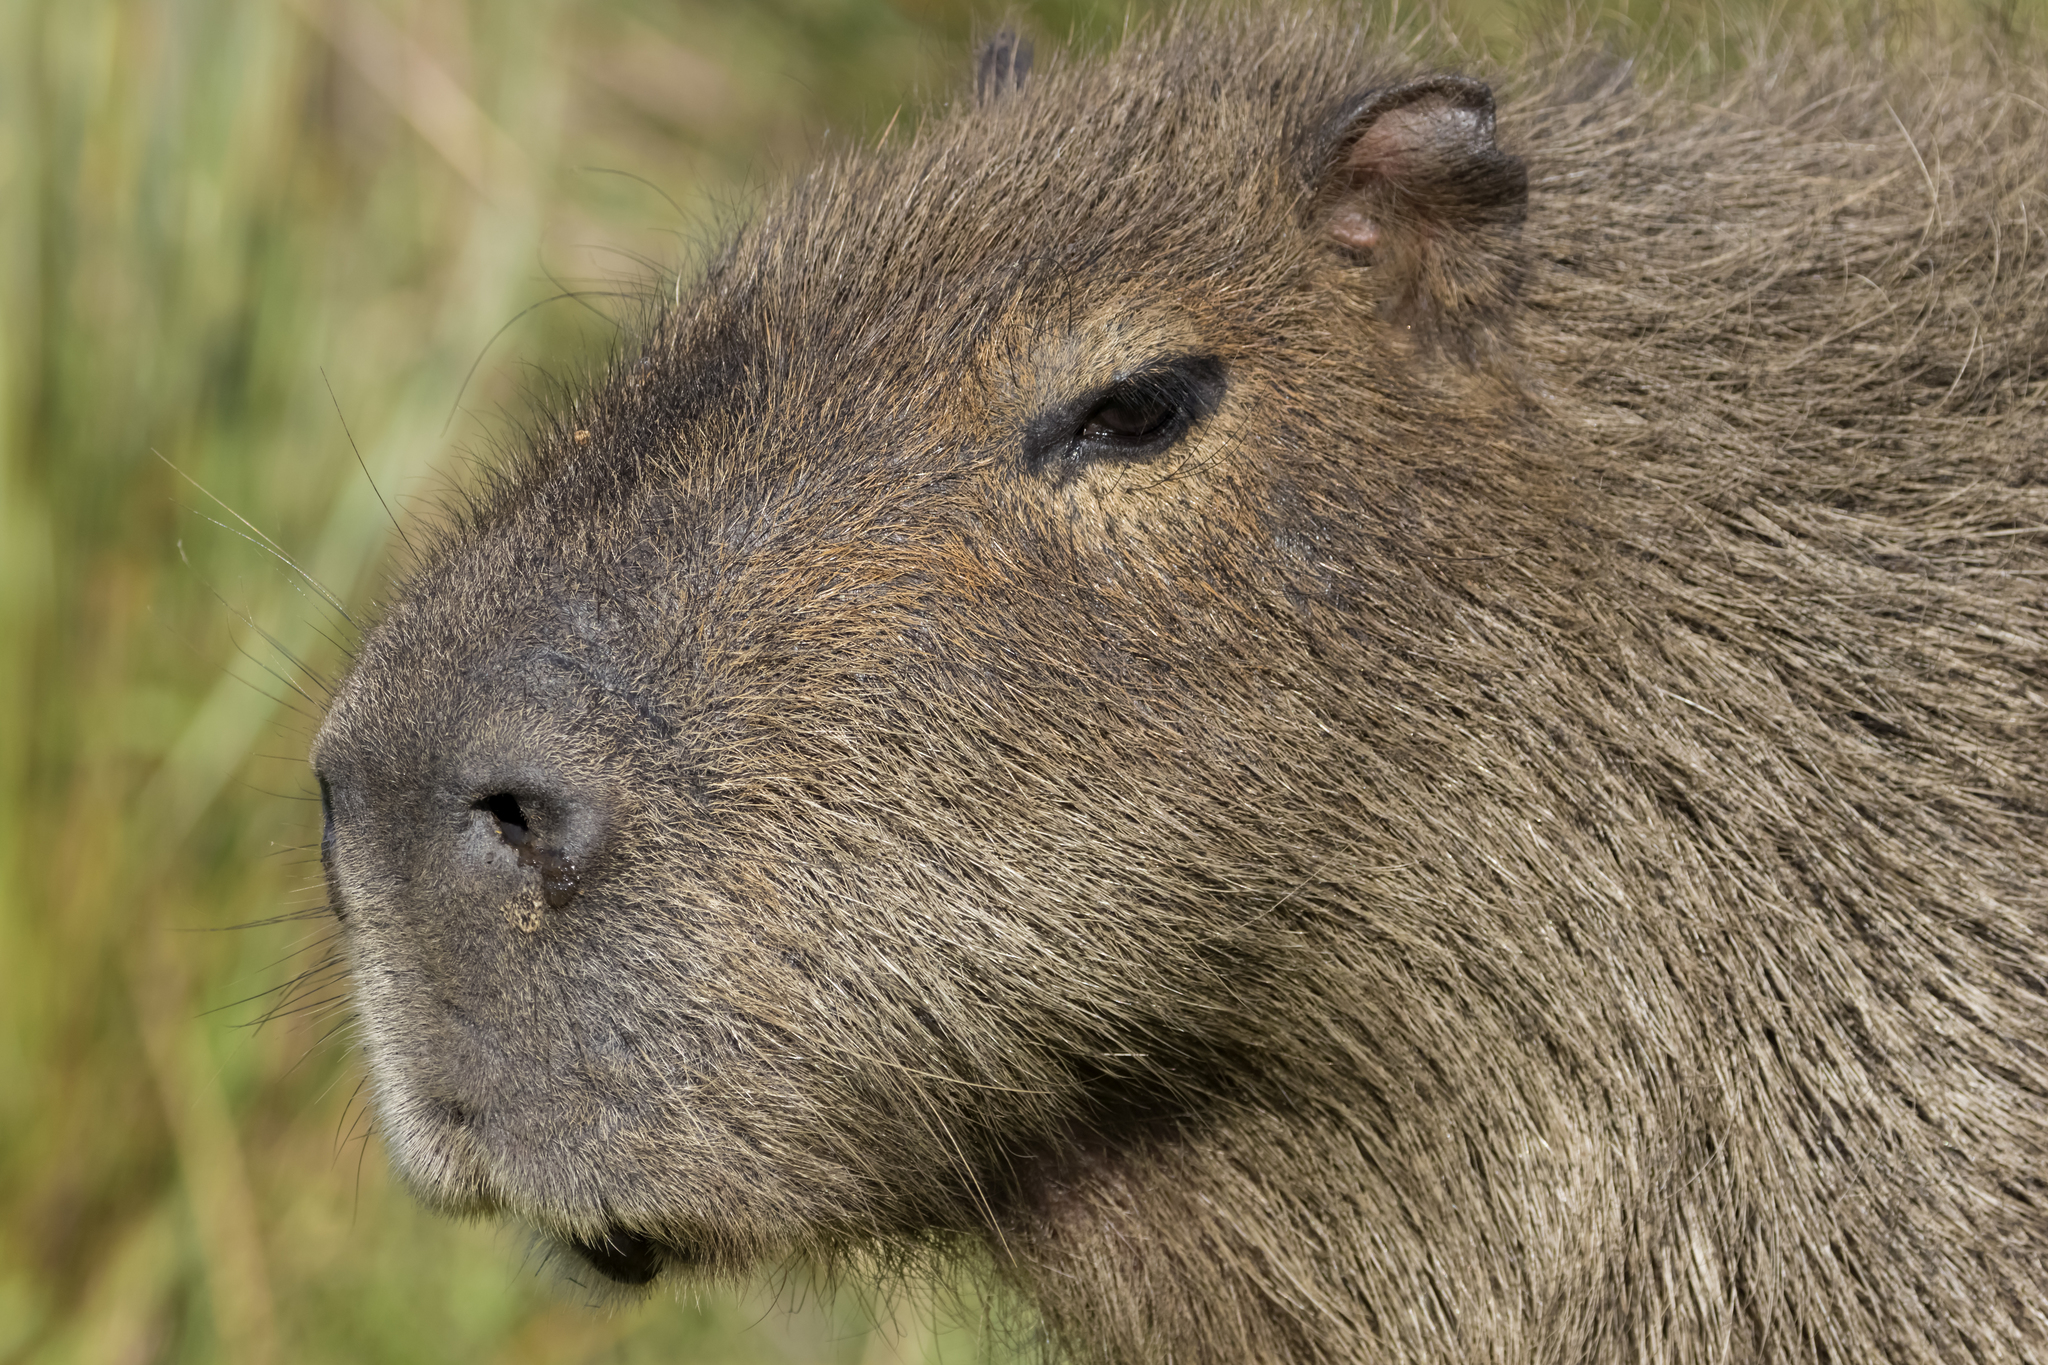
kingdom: Animalia
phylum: Chordata
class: Mammalia
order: Rodentia
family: Caviidae
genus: Hydrochoerus
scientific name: Hydrochoerus hydrochaeris
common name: Capybara
